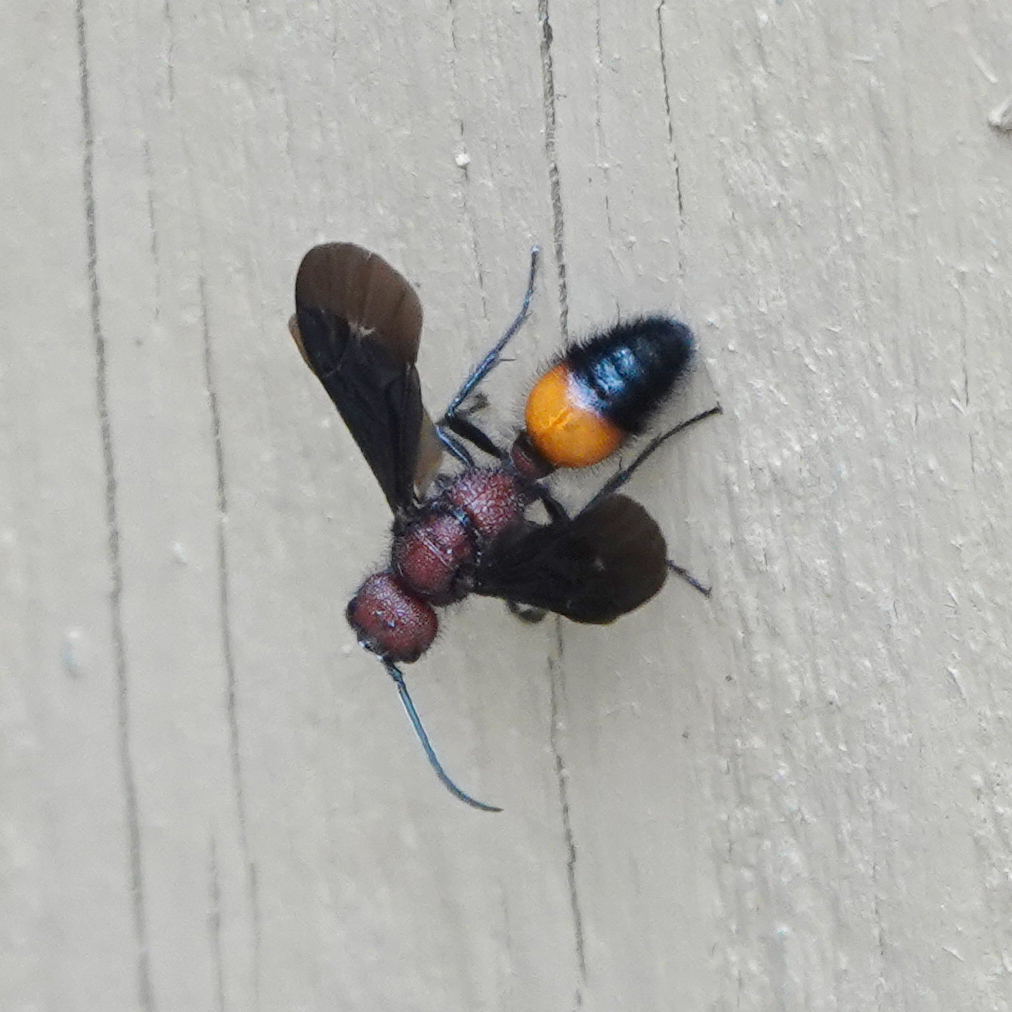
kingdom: Animalia
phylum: Arthropoda
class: Insecta
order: Hymenoptera
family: Mutillidae
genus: Sphaeropthalma
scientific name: Sphaeropthalma
